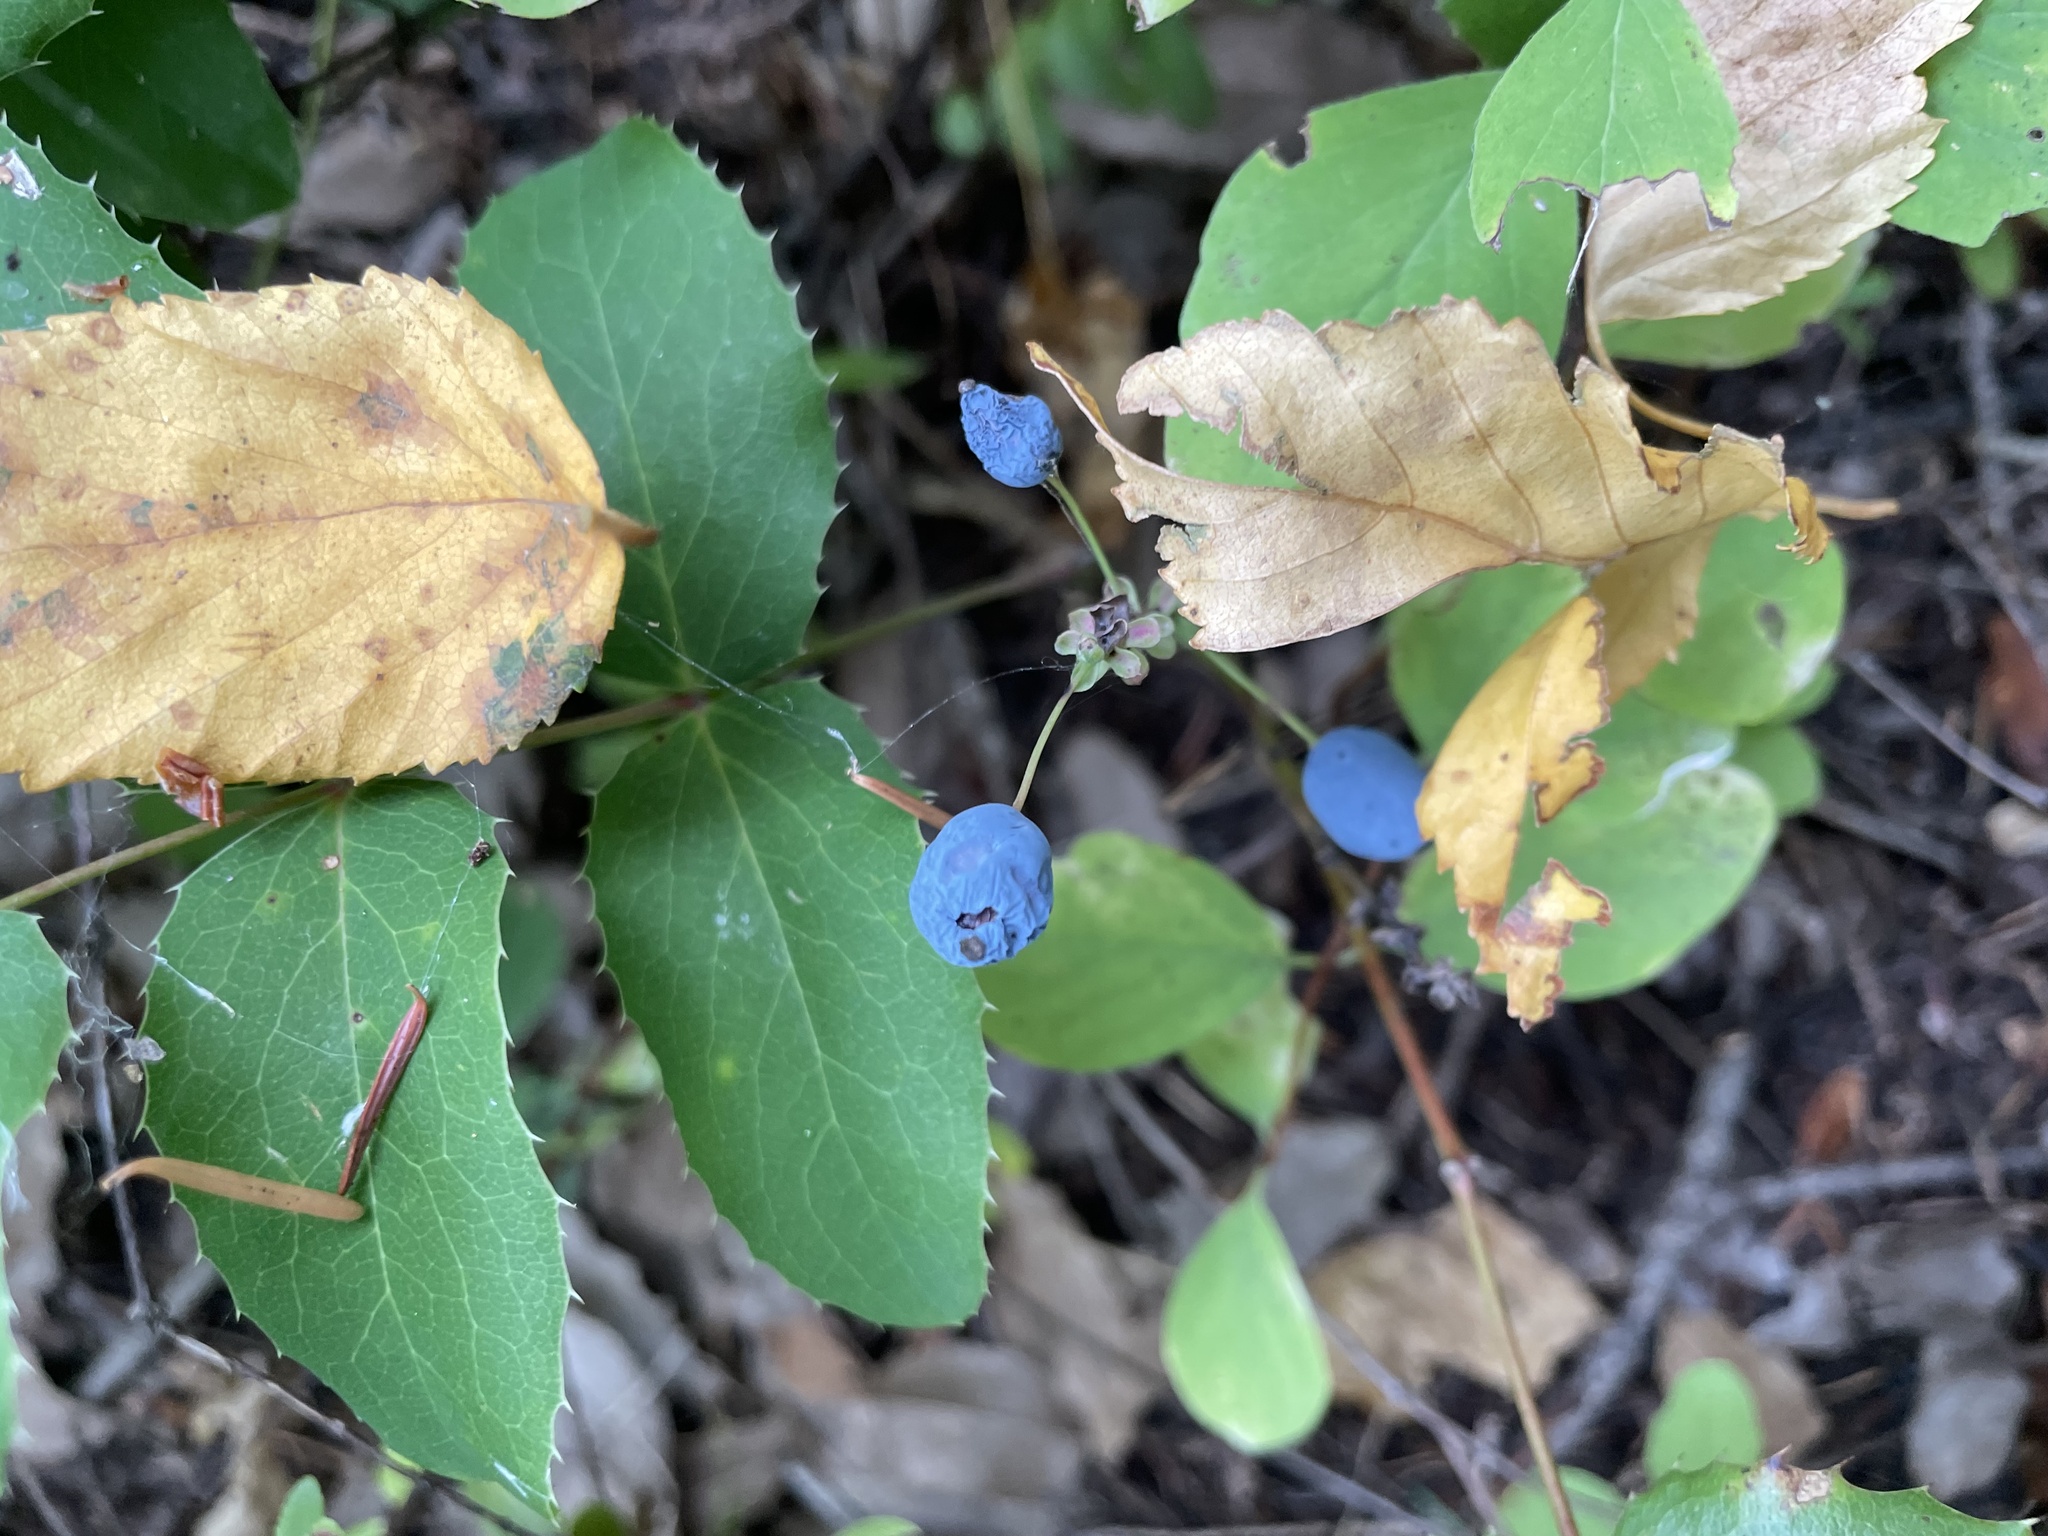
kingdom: Plantae
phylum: Tracheophyta
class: Magnoliopsida
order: Ranunculales
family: Berberidaceae
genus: Mahonia
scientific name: Mahonia repens
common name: Creeping oregon-grape
